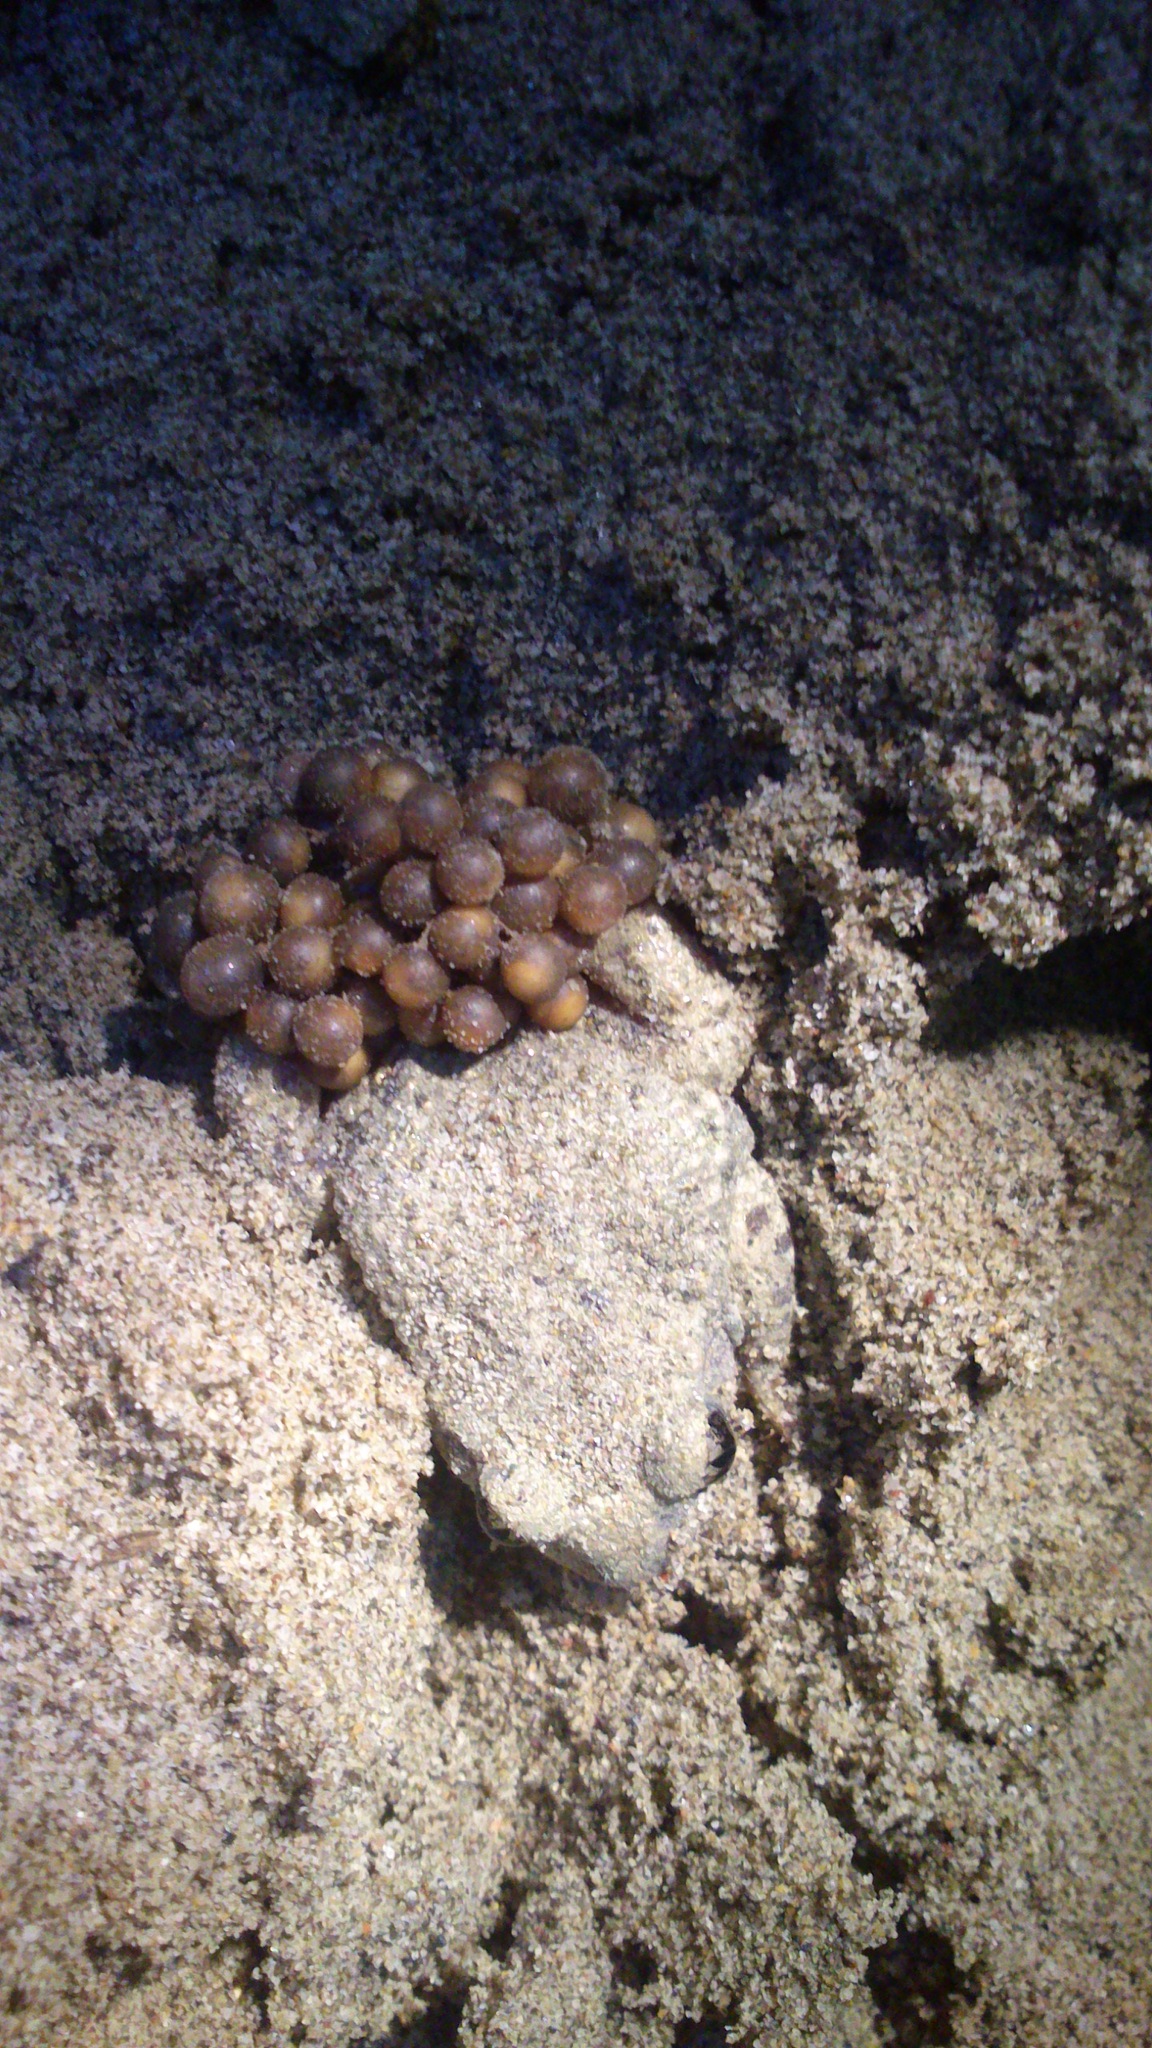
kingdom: Animalia
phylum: Chordata
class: Amphibia
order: Anura
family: Alytidae
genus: Alytes
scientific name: Alytes obstetricans
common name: Midwife toad
